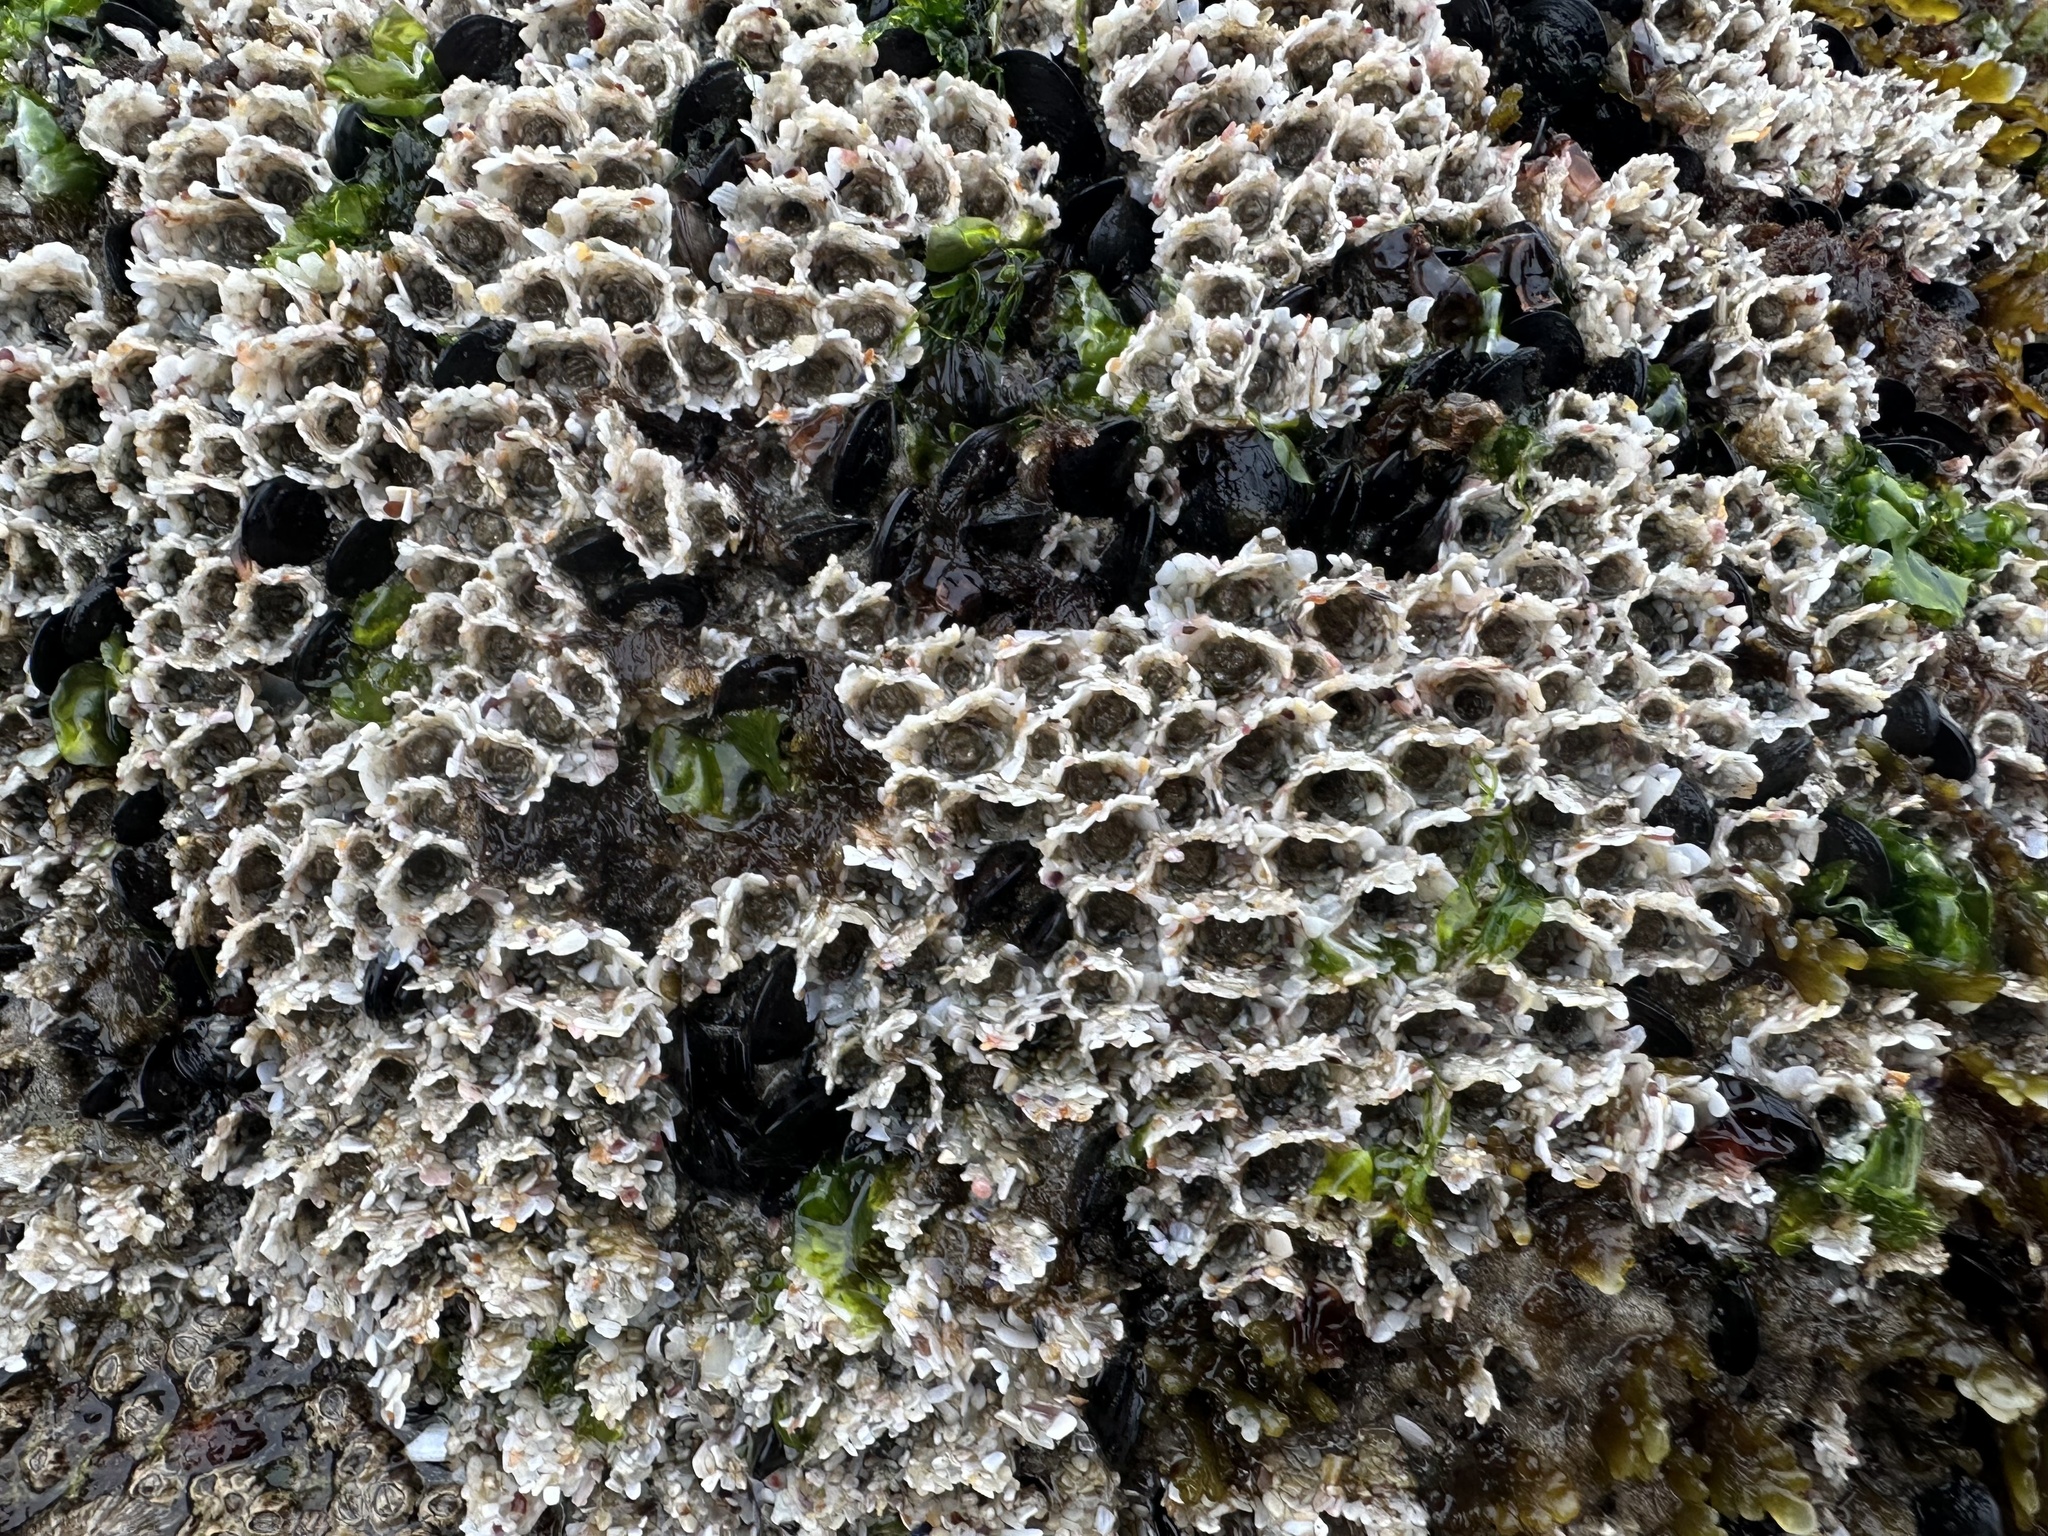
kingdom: Animalia
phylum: Annelida
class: Polychaeta
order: Sabellida
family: Sabellariidae
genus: Sabellaria
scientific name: Sabellaria alveolata
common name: Honeycomb worm
